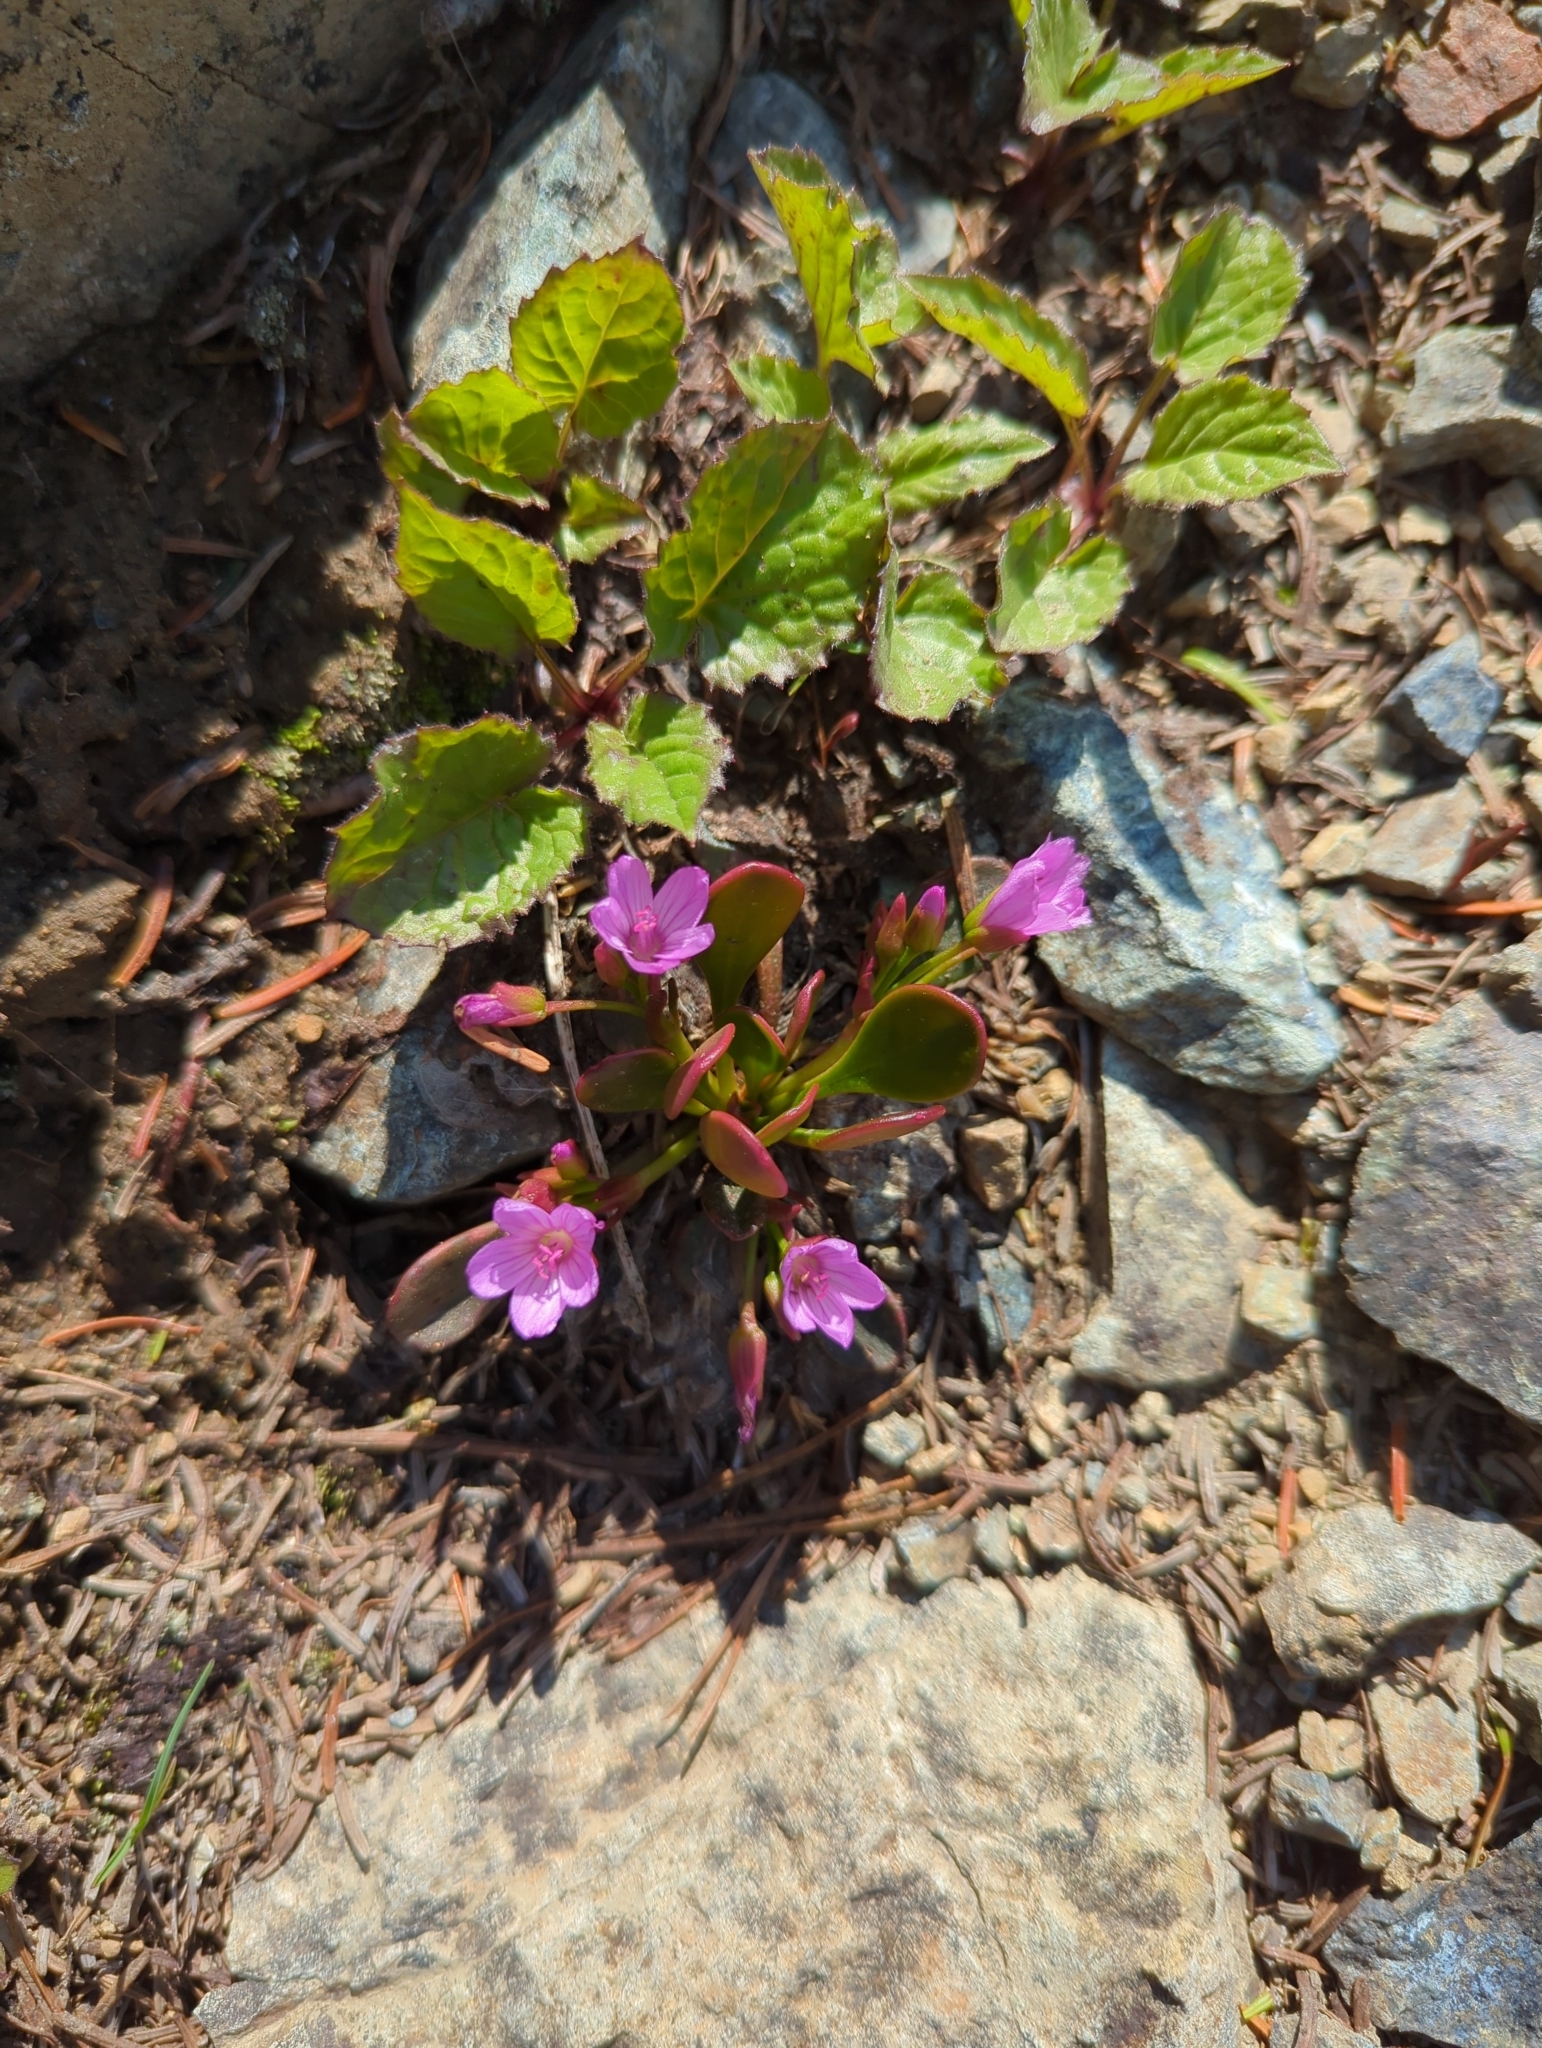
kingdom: Plantae
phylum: Tracheophyta
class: Magnoliopsida
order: Caryophyllales
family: Montiaceae
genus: Claytonia
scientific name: Claytonia megarhiza
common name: Alpine spring beauty
